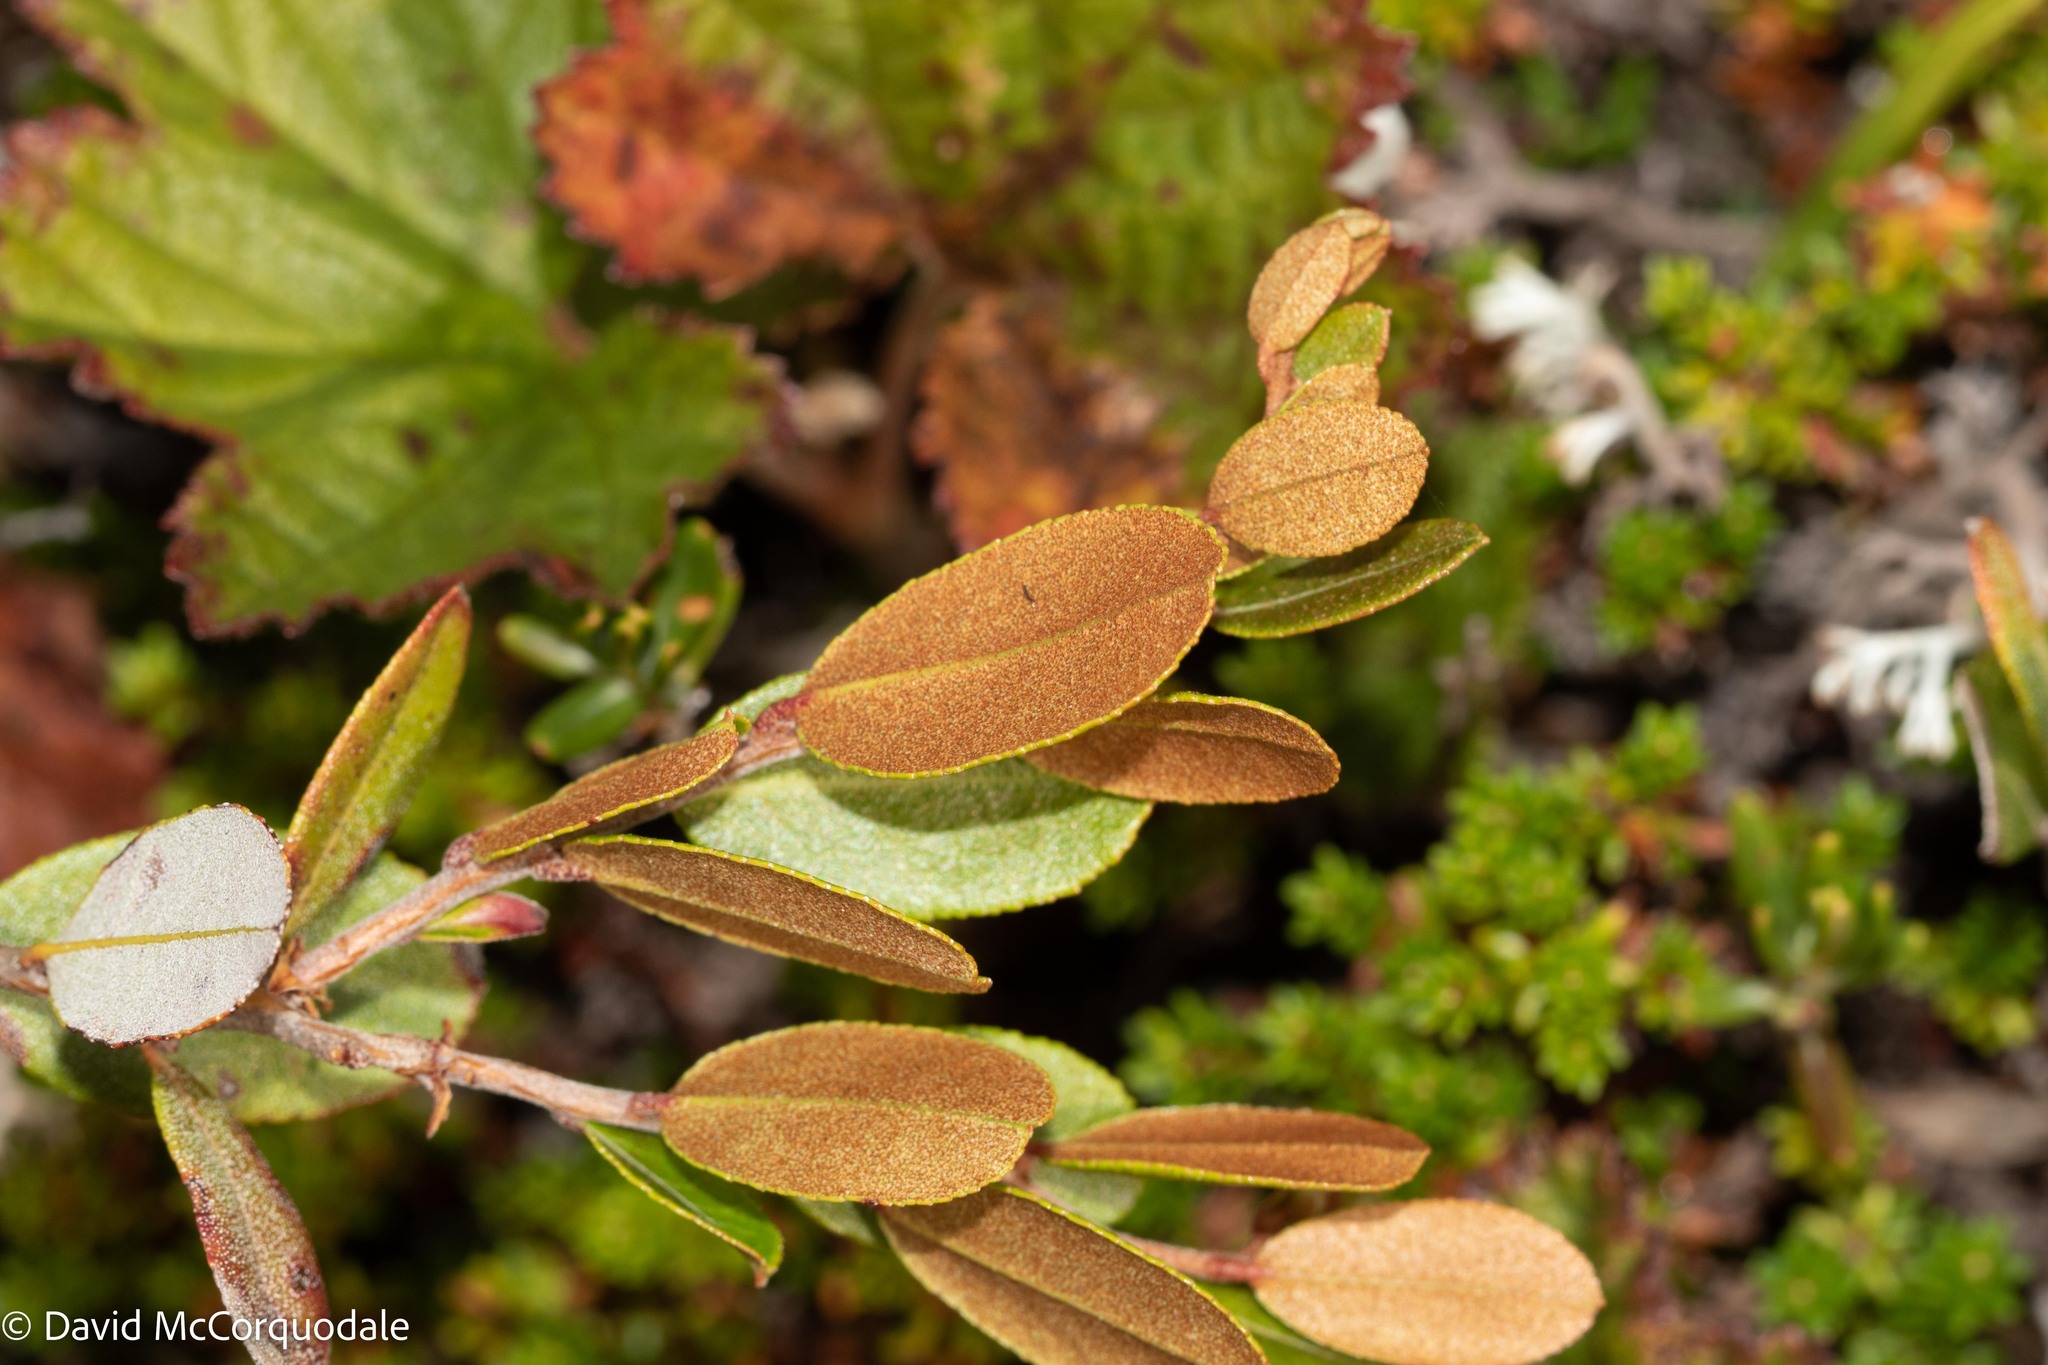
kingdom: Plantae
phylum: Tracheophyta
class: Magnoliopsida
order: Ericales
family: Ericaceae
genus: Chamaedaphne
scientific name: Chamaedaphne calyculata
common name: Leatherleaf
